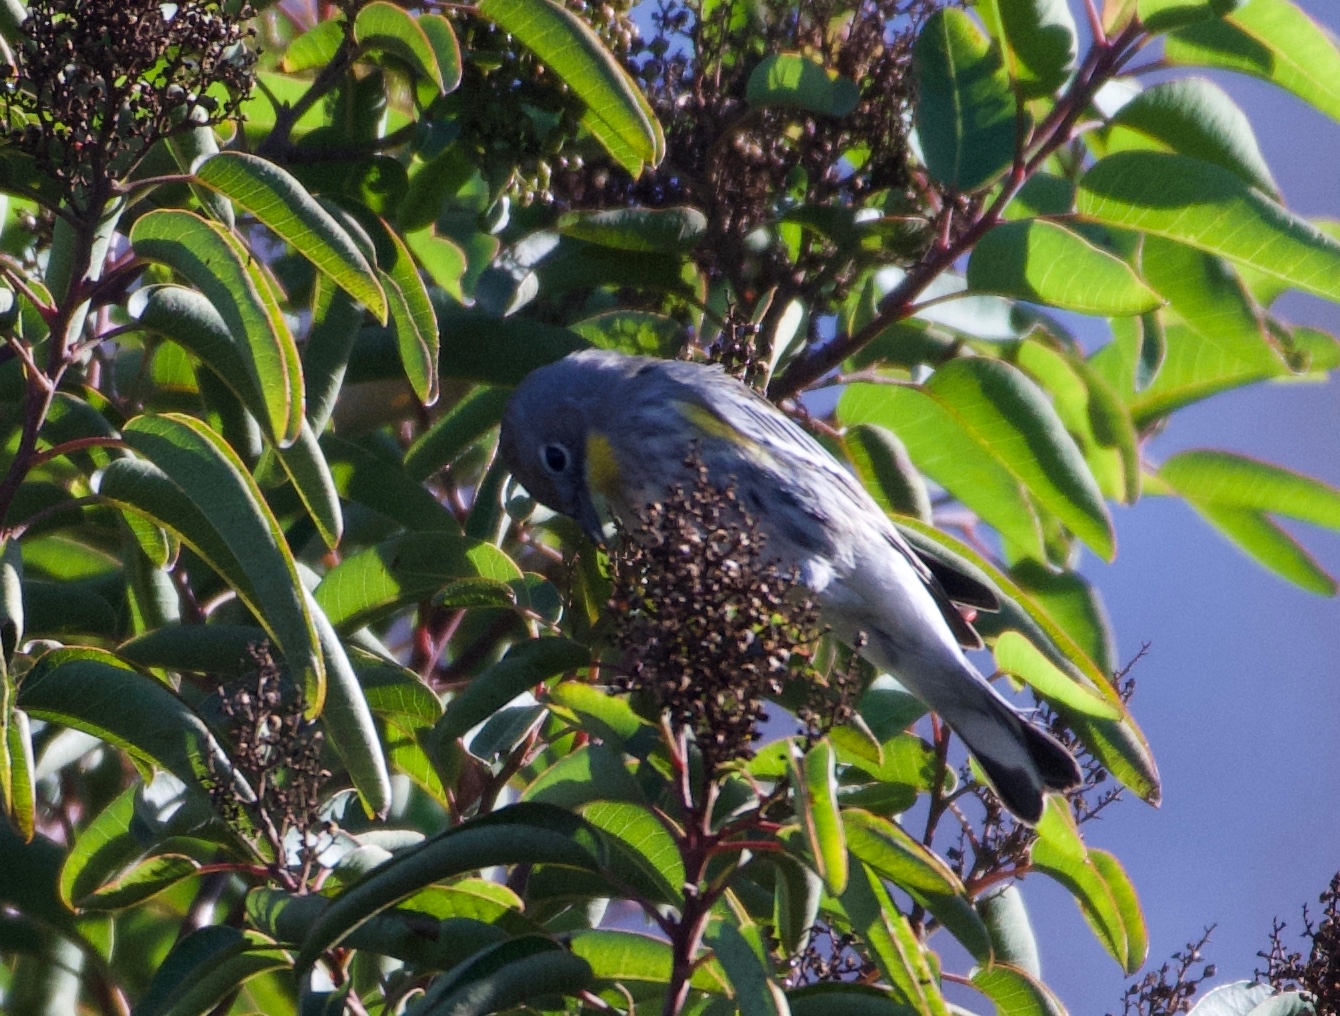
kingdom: Animalia
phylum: Chordata
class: Aves
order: Passeriformes
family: Parulidae
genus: Setophaga
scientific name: Setophaga auduboni
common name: Audubon's warbler
